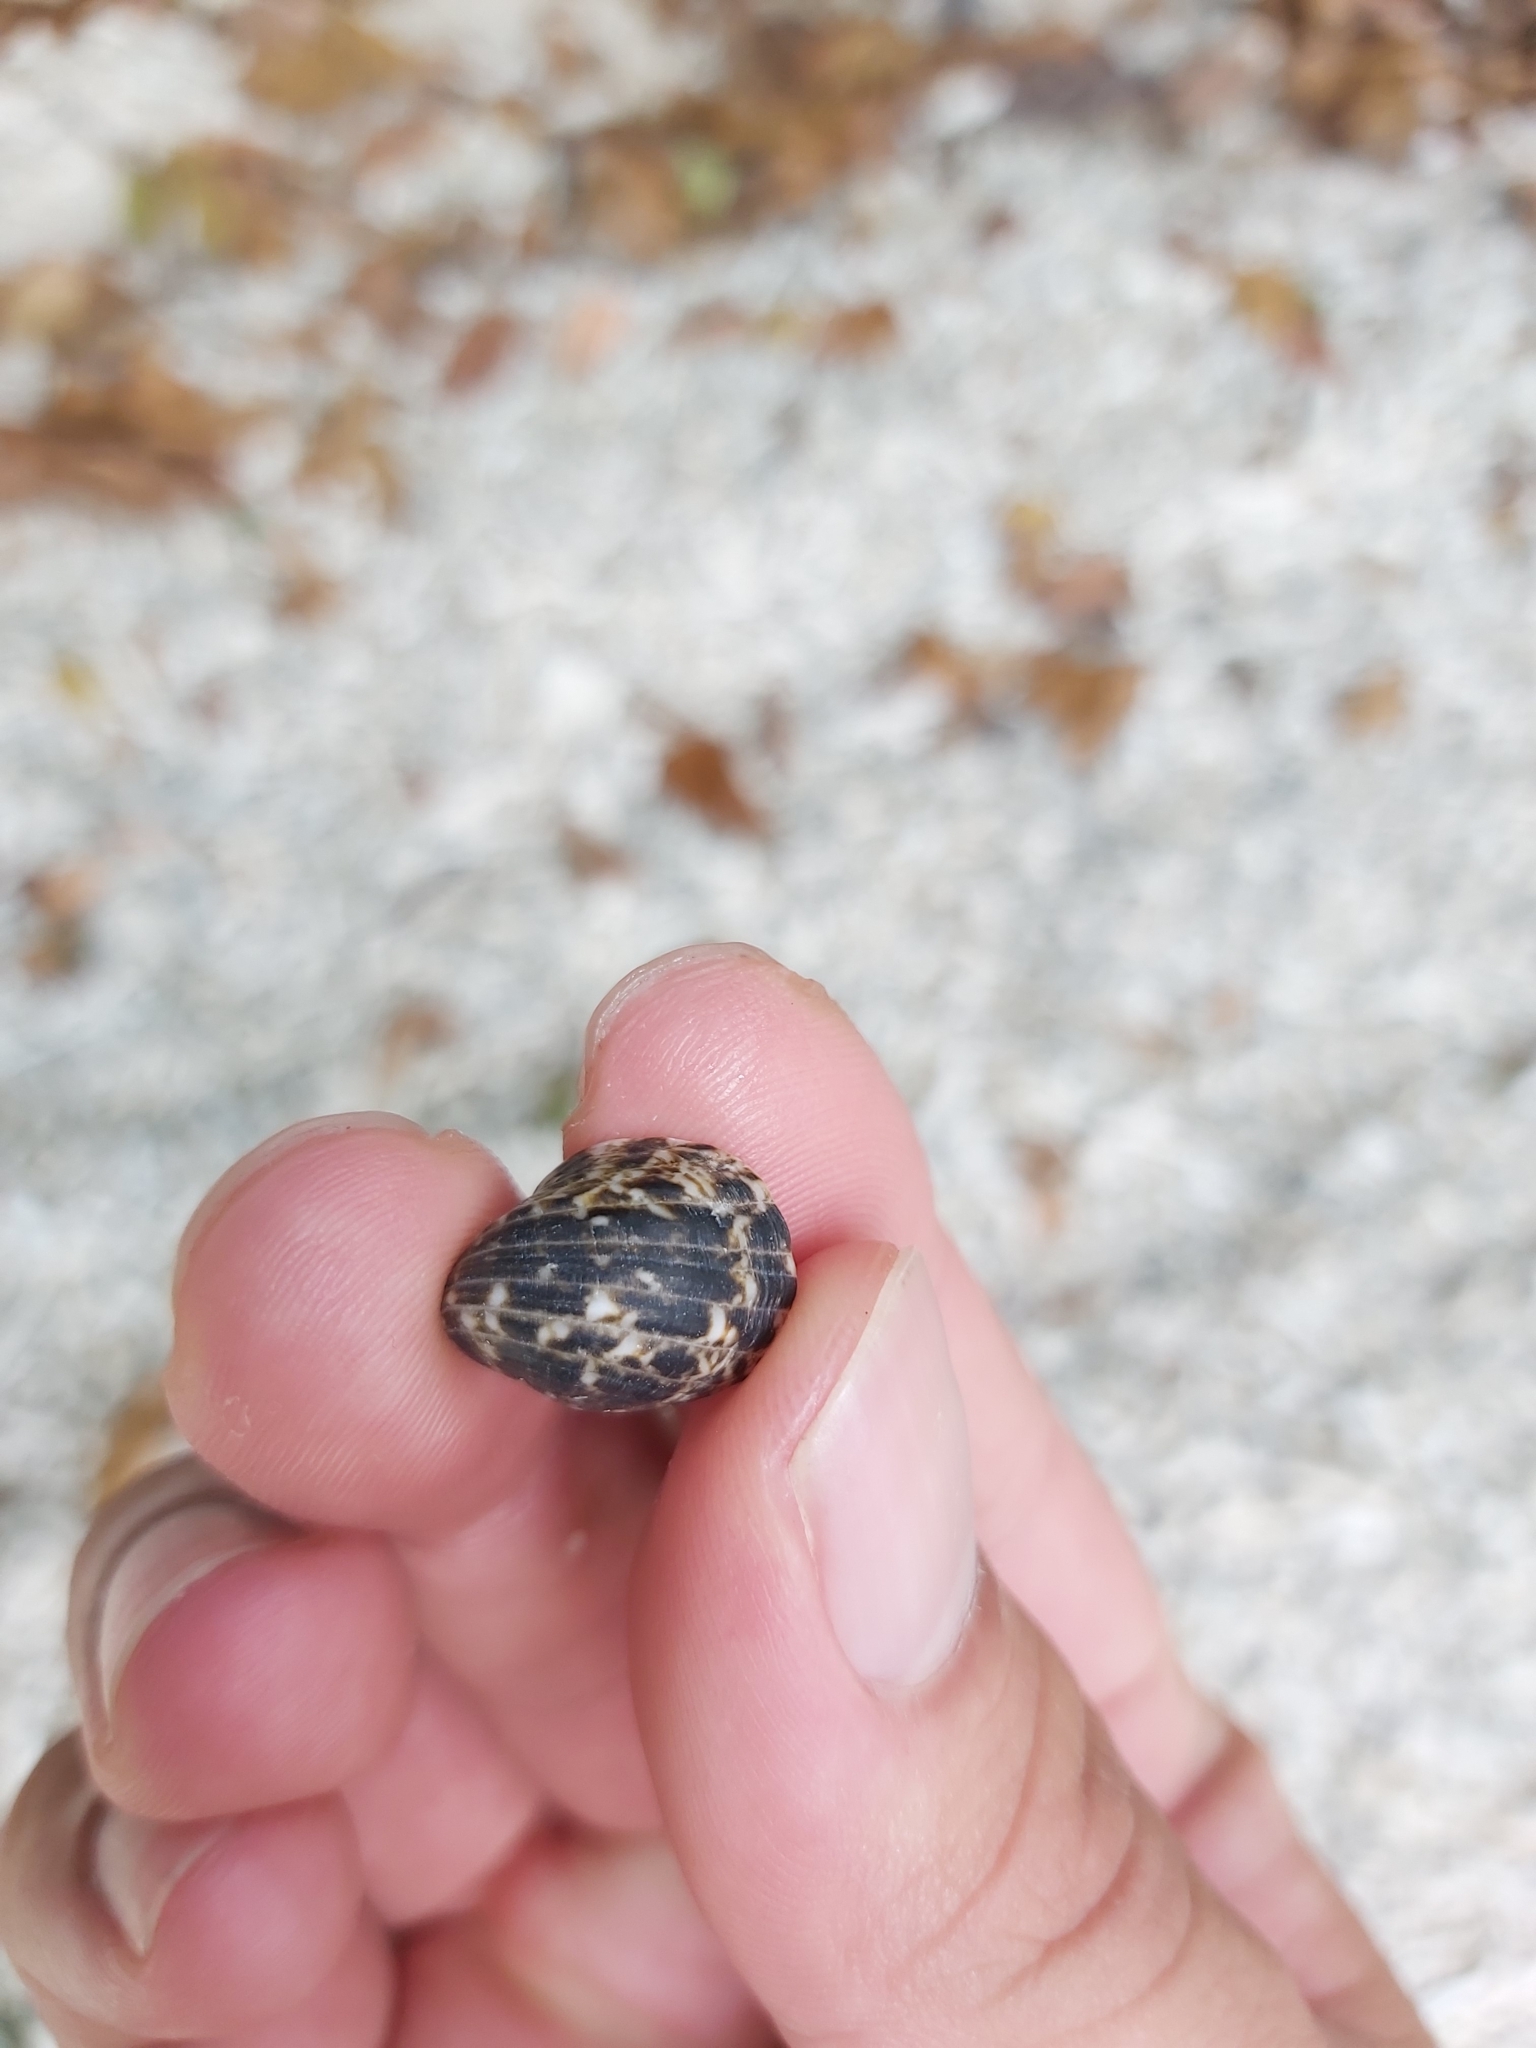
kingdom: Animalia
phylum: Mollusca
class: Gastropoda
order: Cycloneritida
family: Neritidae
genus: Nerita
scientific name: Nerita albicilla
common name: Blotched nerite
